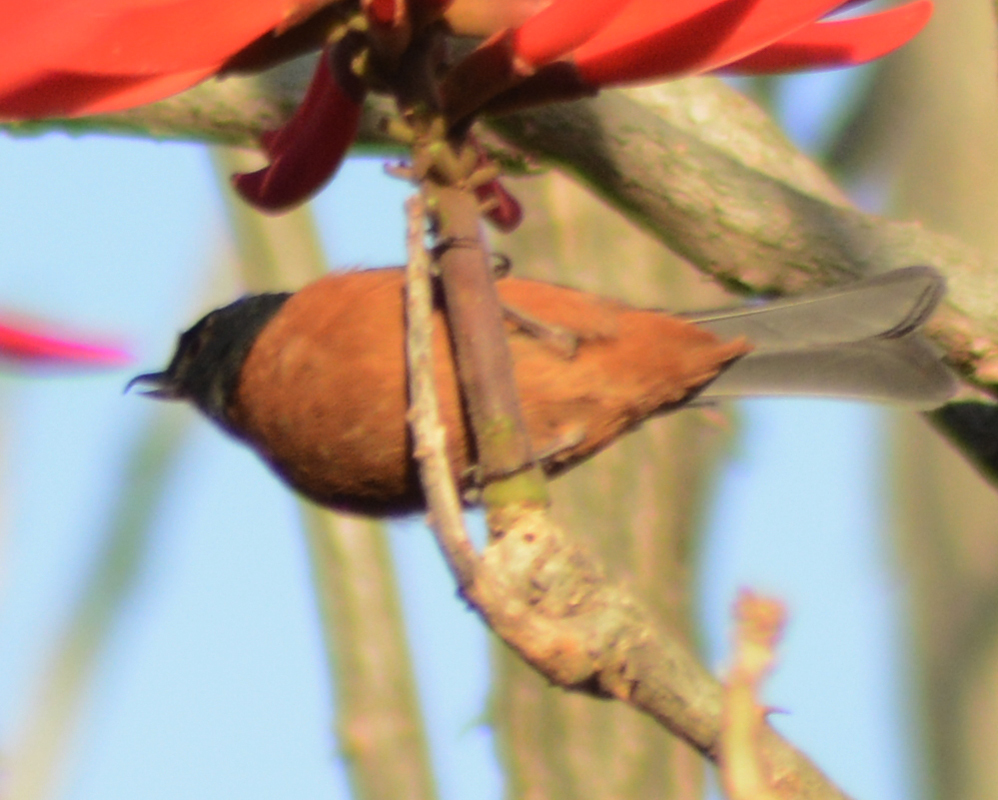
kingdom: Animalia
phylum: Chordata
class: Aves
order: Passeriformes
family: Thraupidae
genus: Diglossa
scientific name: Diglossa baritula
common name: Cinnamon-bellied flowerpiercer
